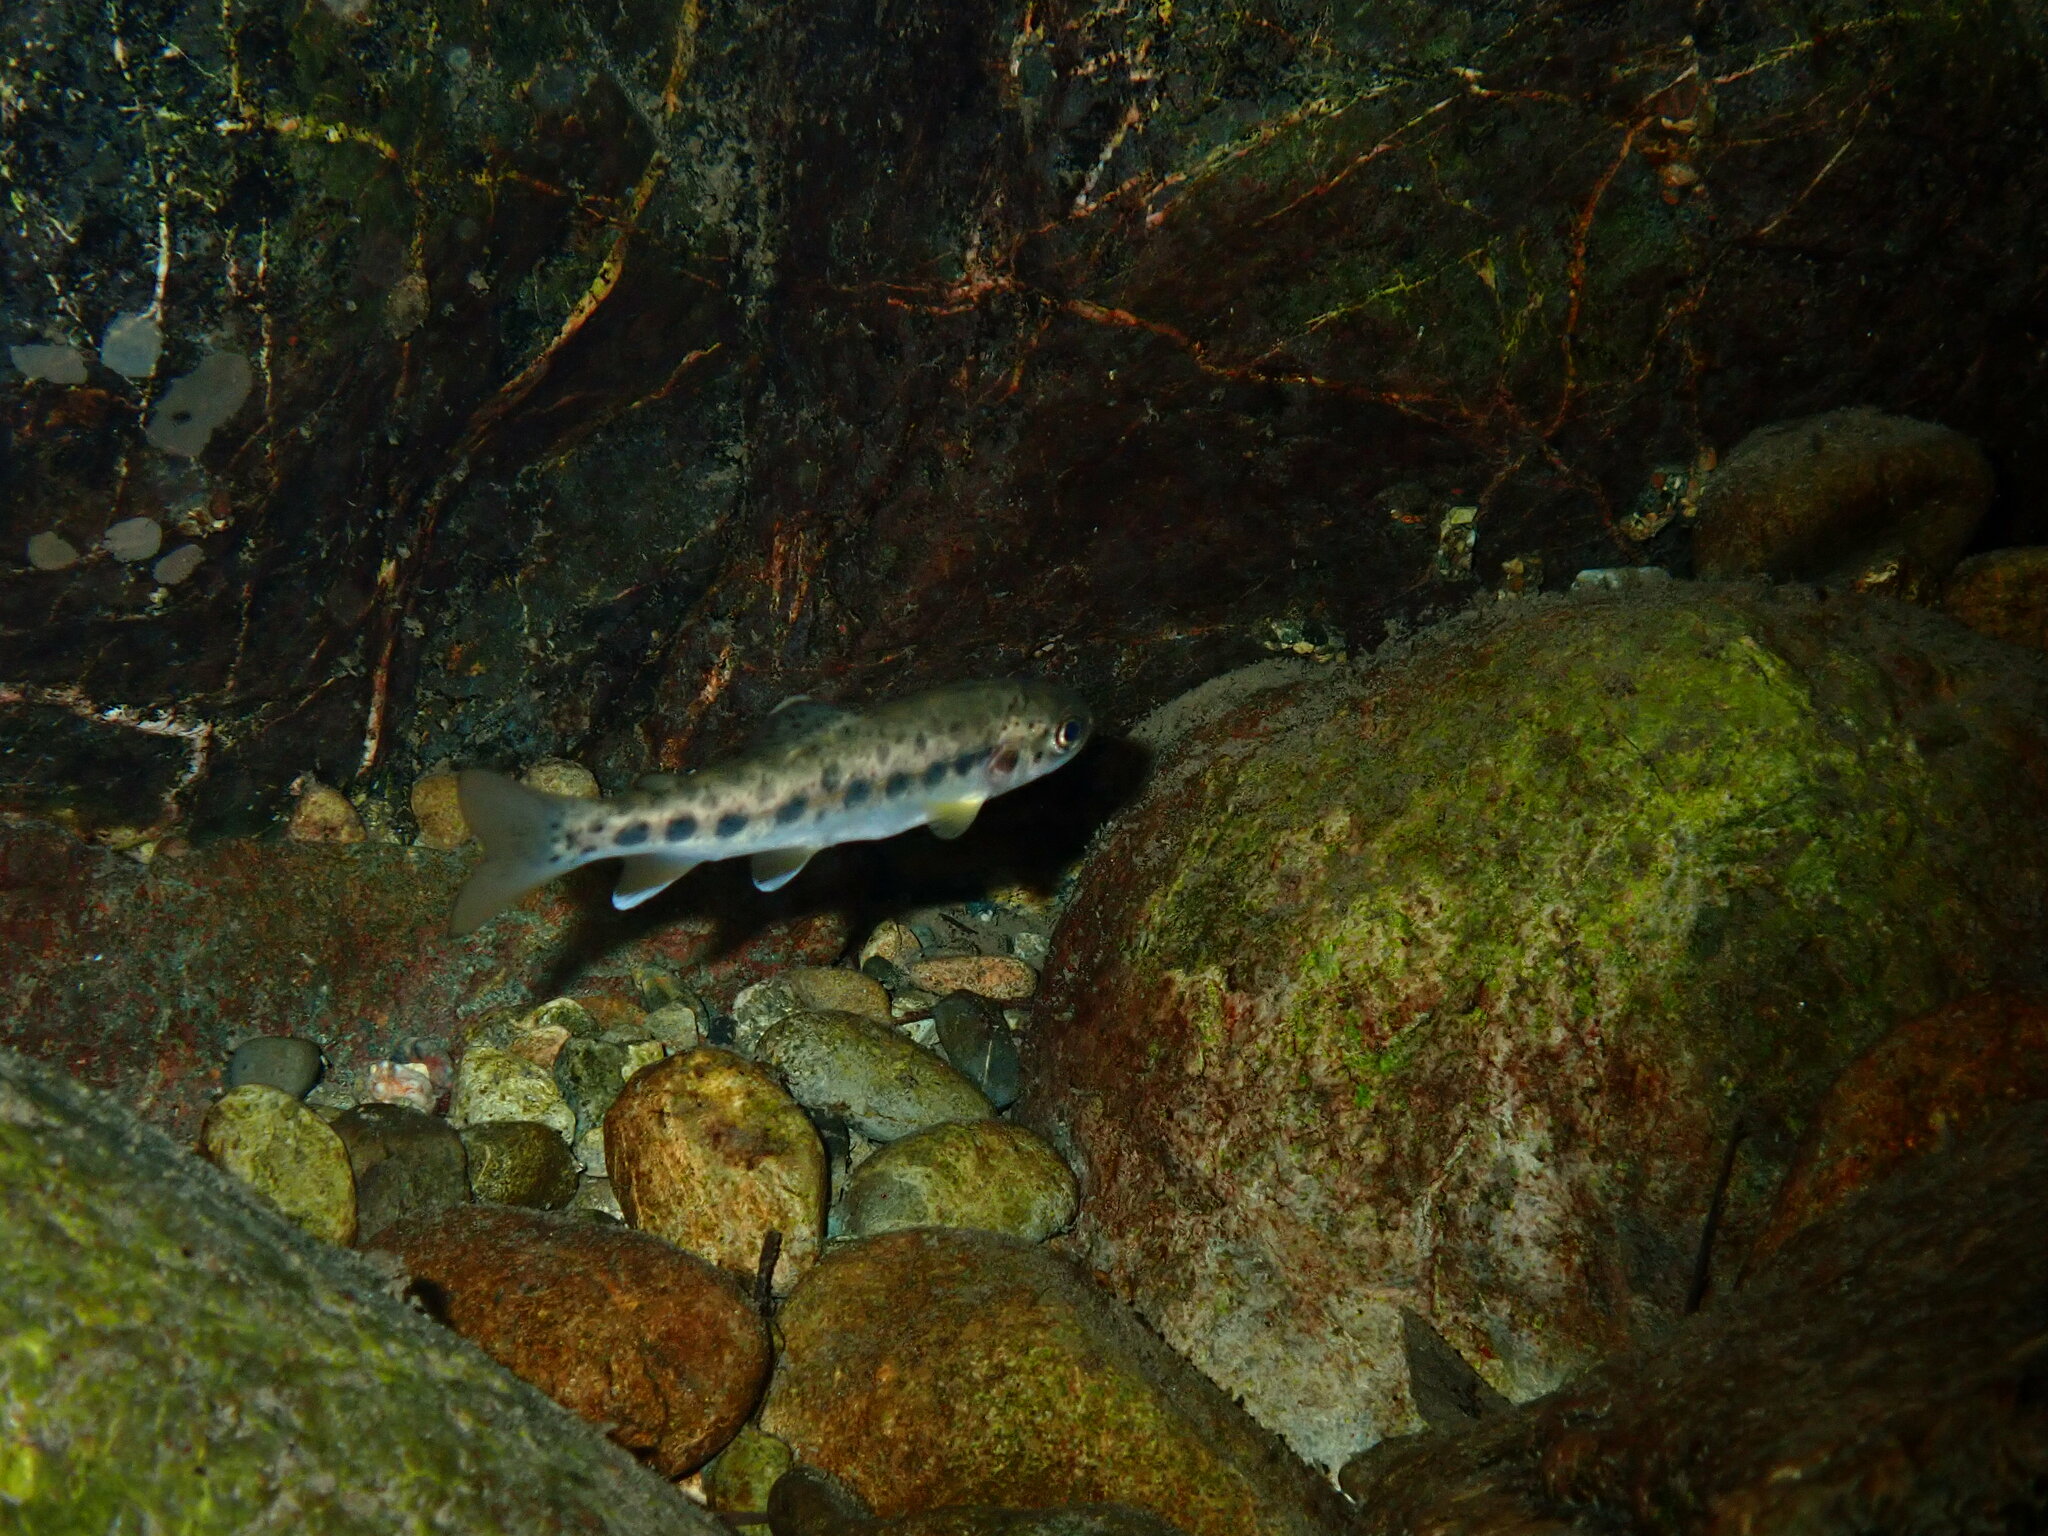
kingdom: Animalia
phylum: Chordata
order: Salmoniformes
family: Salmonidae
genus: Oncorhynchus
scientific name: Oncorhynchus clarkii
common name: Cutthroat trout
